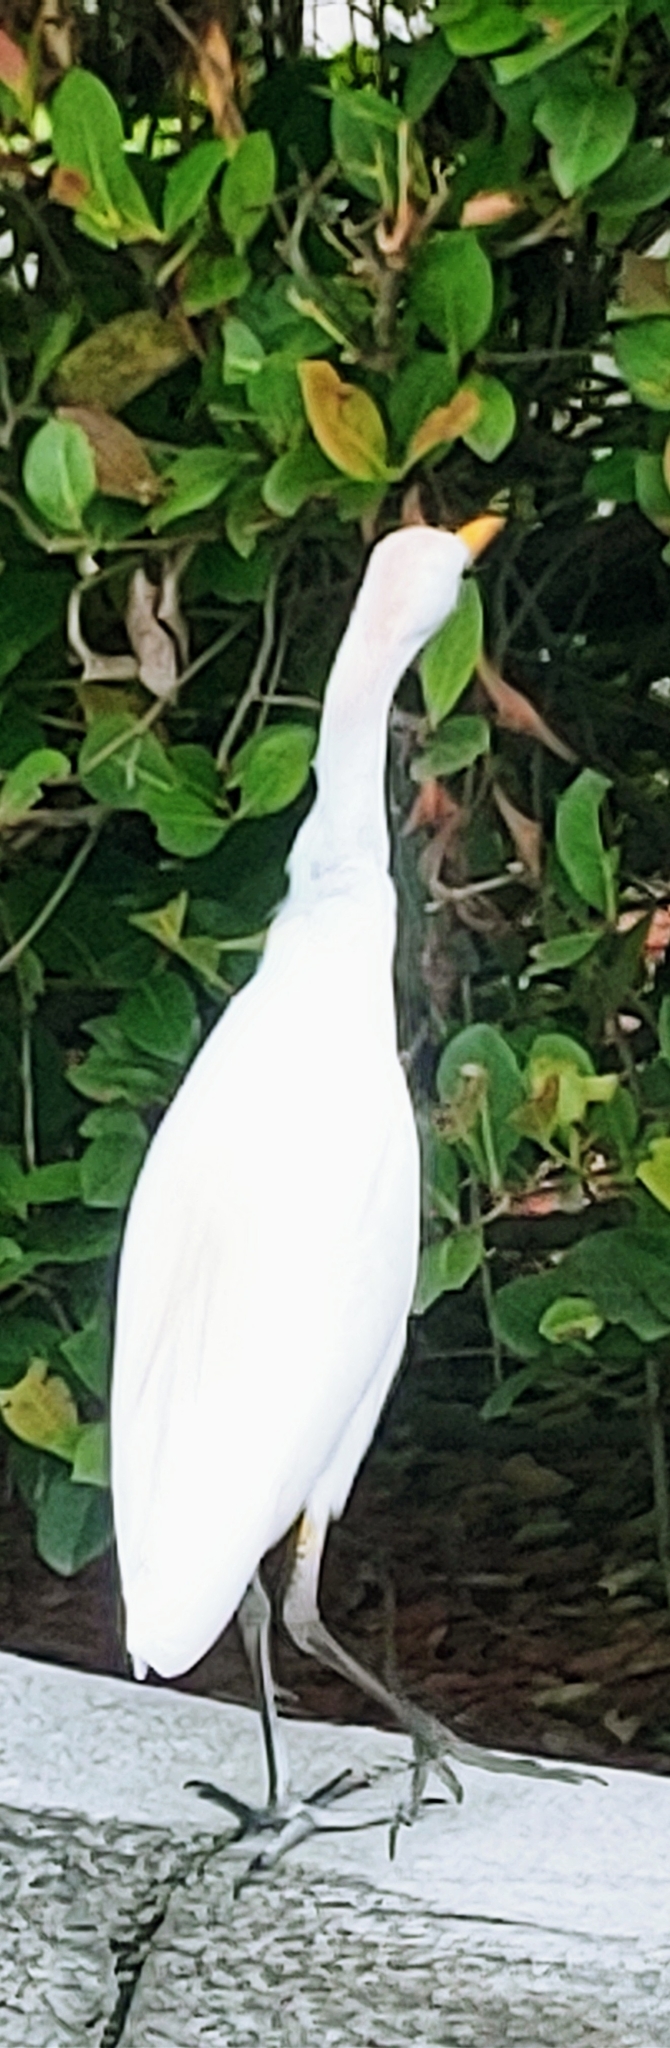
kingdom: Animalia
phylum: Chordata
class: Aves
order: Pelecaniformes
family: Ardeidae
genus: Bubulcus
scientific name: Bubulcus ibis
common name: Cattle egret
